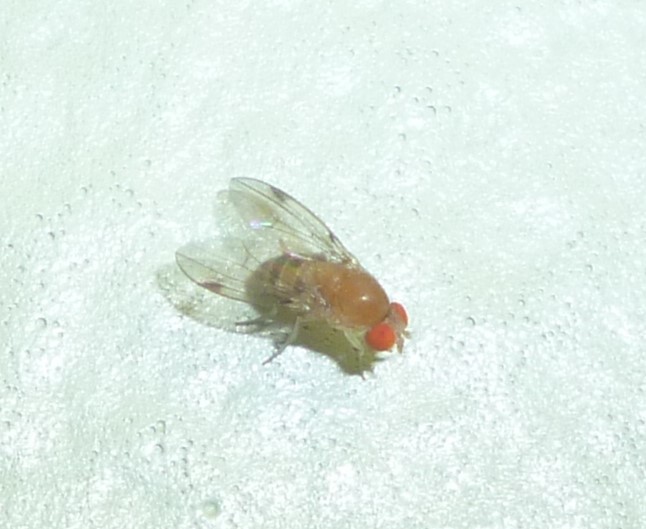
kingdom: Animalia
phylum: Arthropoda
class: Insecta
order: Diptera
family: Drosophilidae
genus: Leucophenga
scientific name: Leucophenga varia
